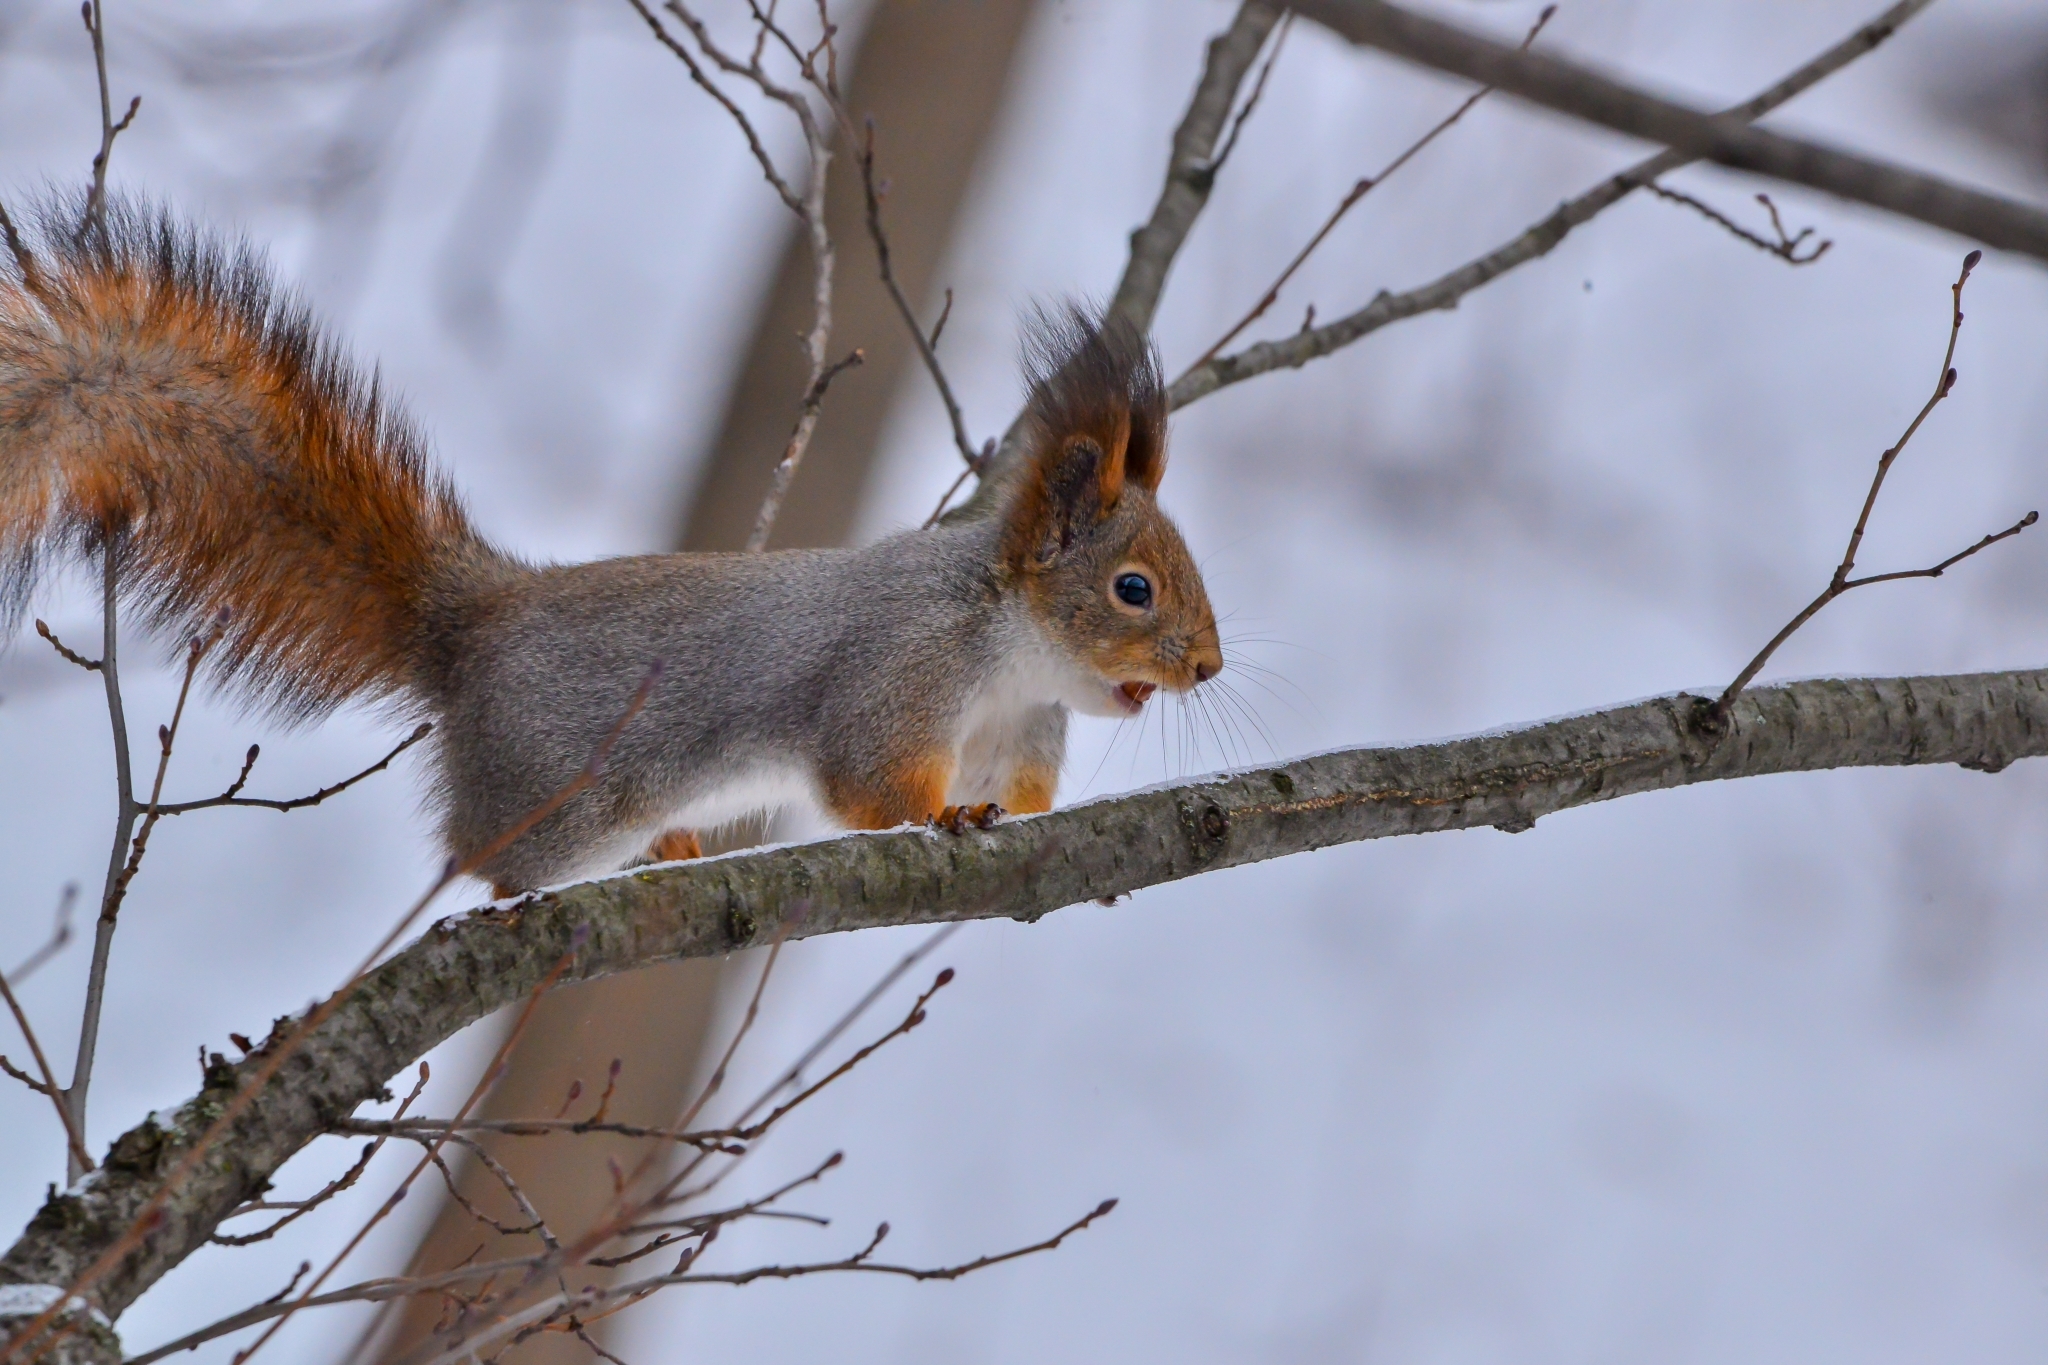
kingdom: Animalia
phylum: Chordata
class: Mammalia
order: Rodentia
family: Sciuridae
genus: Sciurus
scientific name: Sciurus vulgaris
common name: Eurasian red squirrel
